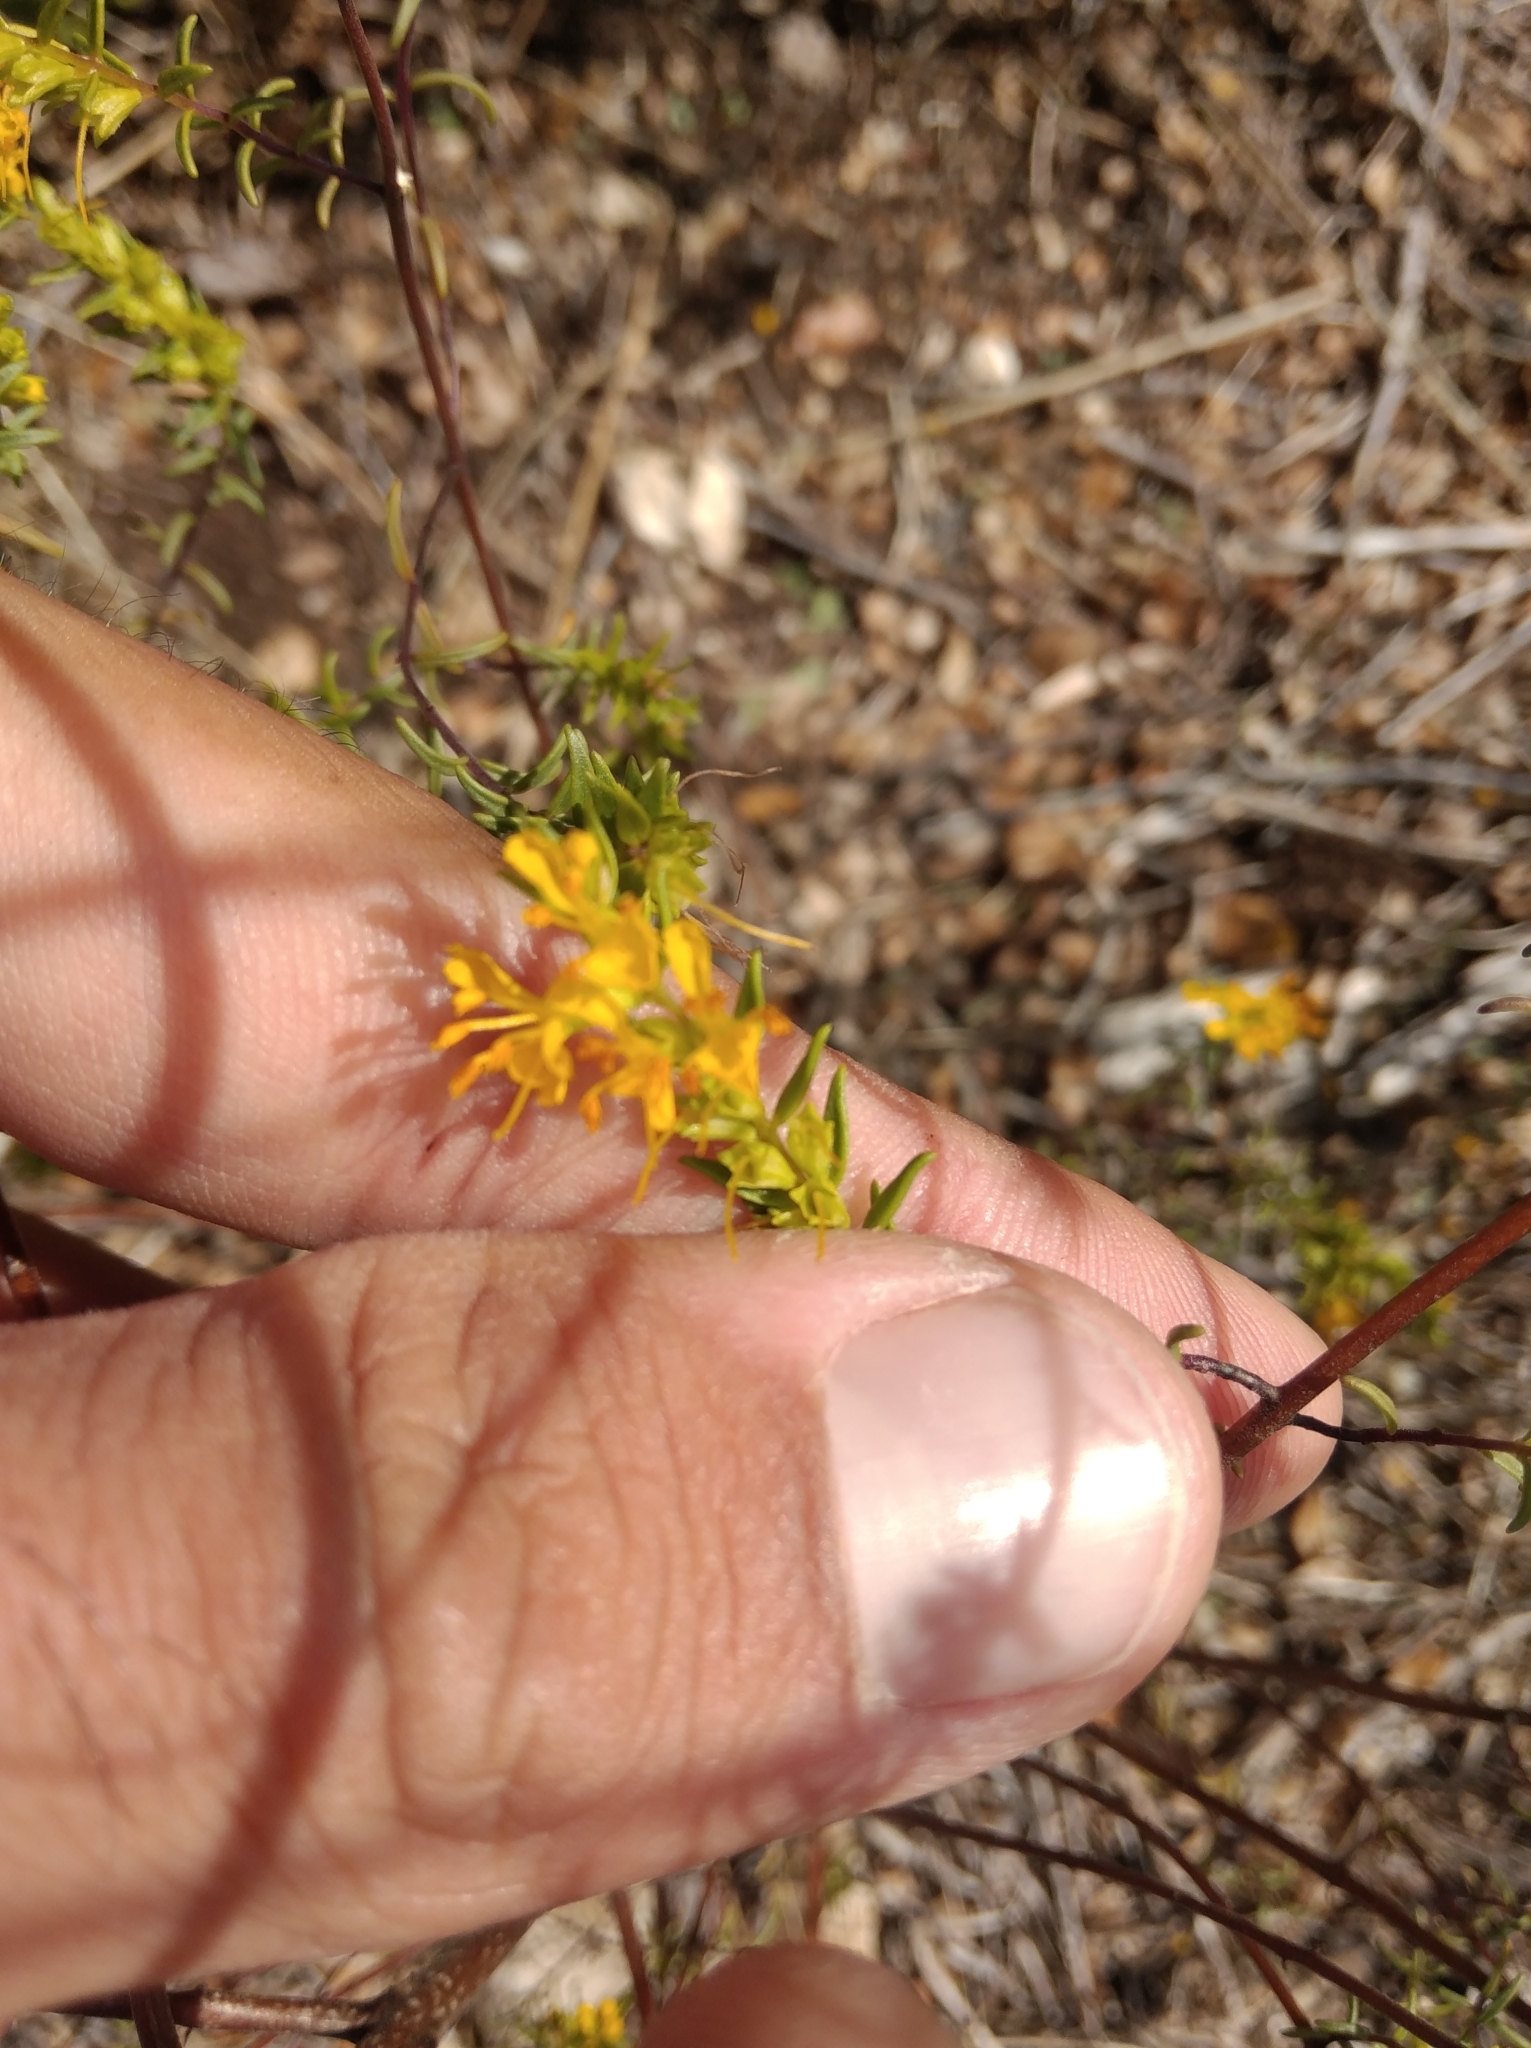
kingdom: Plantae
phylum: Tracheophyta
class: Magnoliopsida
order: Lamiales
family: Orobanchaceae
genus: Odontites
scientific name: Odontites luteus
